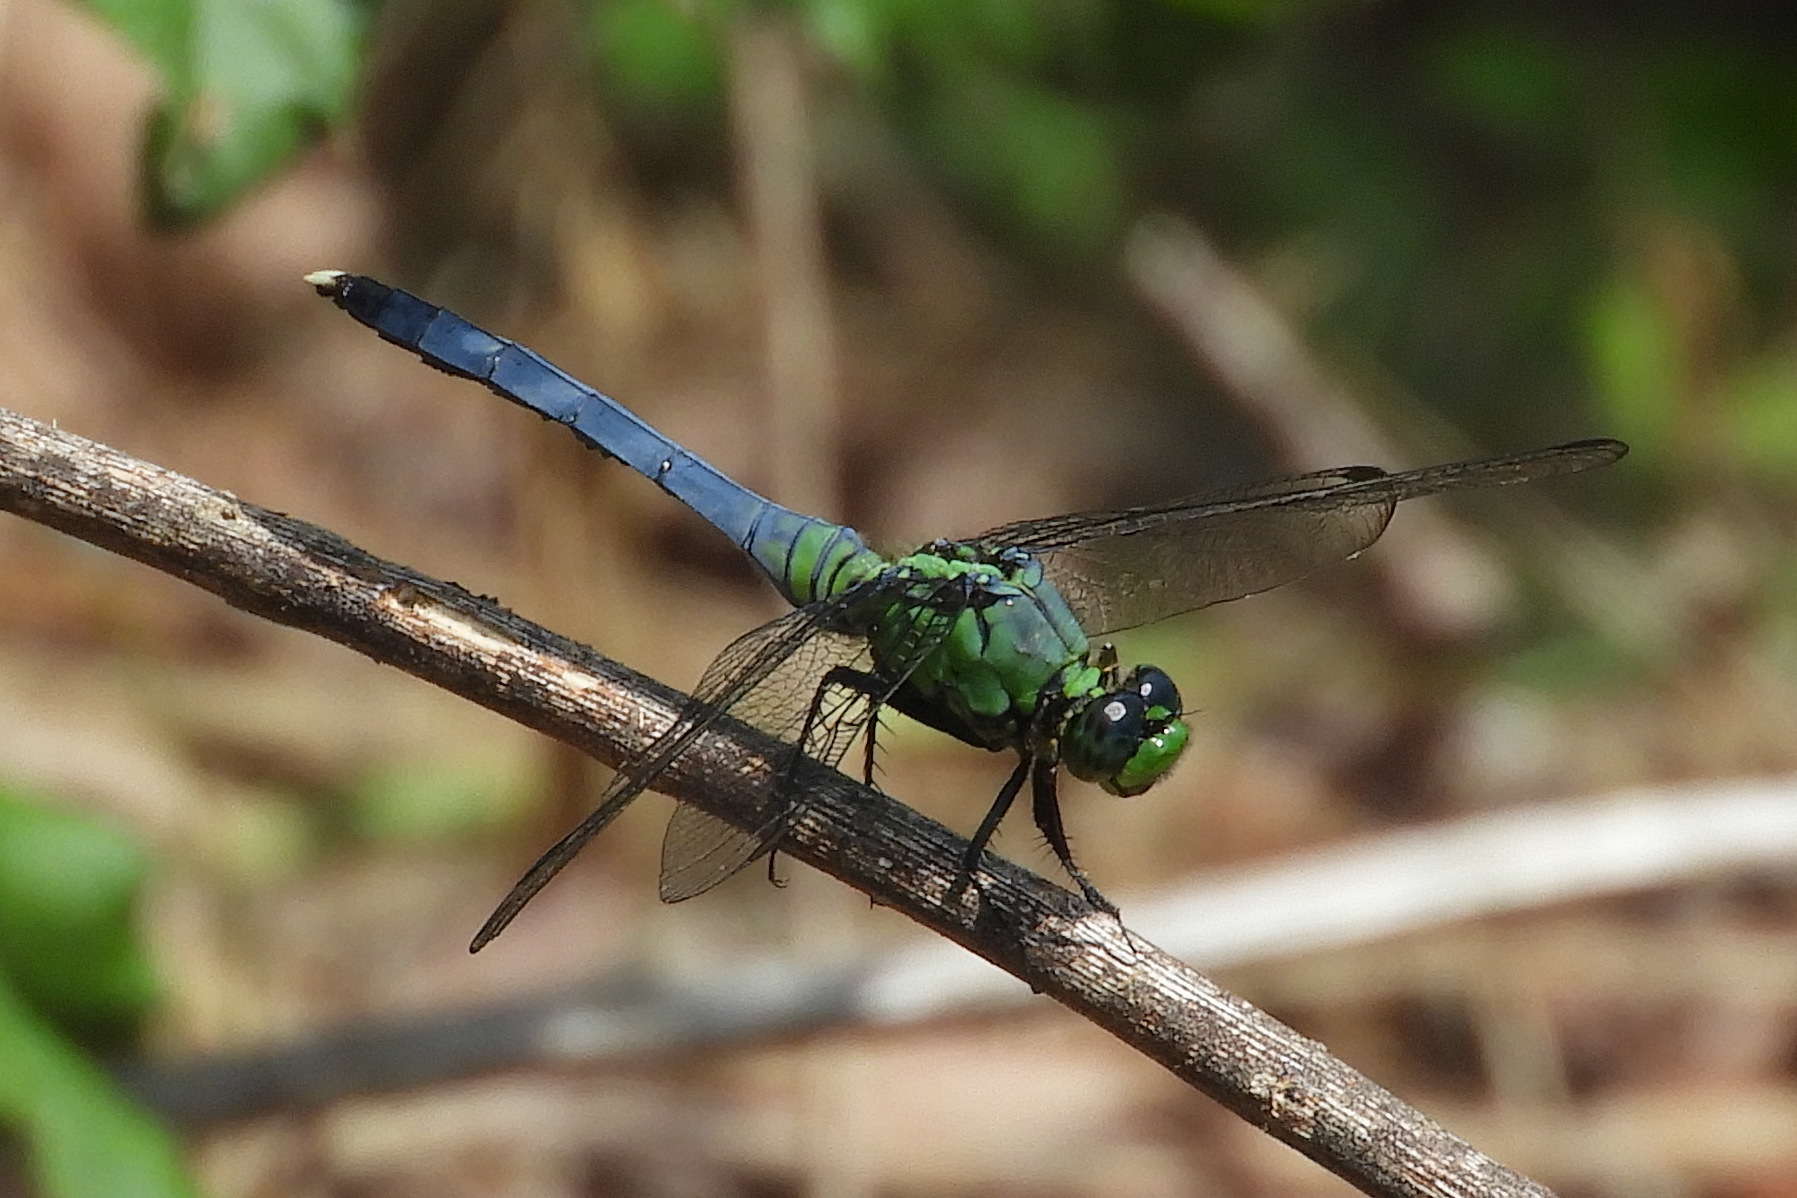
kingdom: Animalia
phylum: Arthropoda
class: Insecta
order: Odonata
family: Libellulidae
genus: Erythemis
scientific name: Erythemis simplicicollis
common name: Eastern pondhawk
